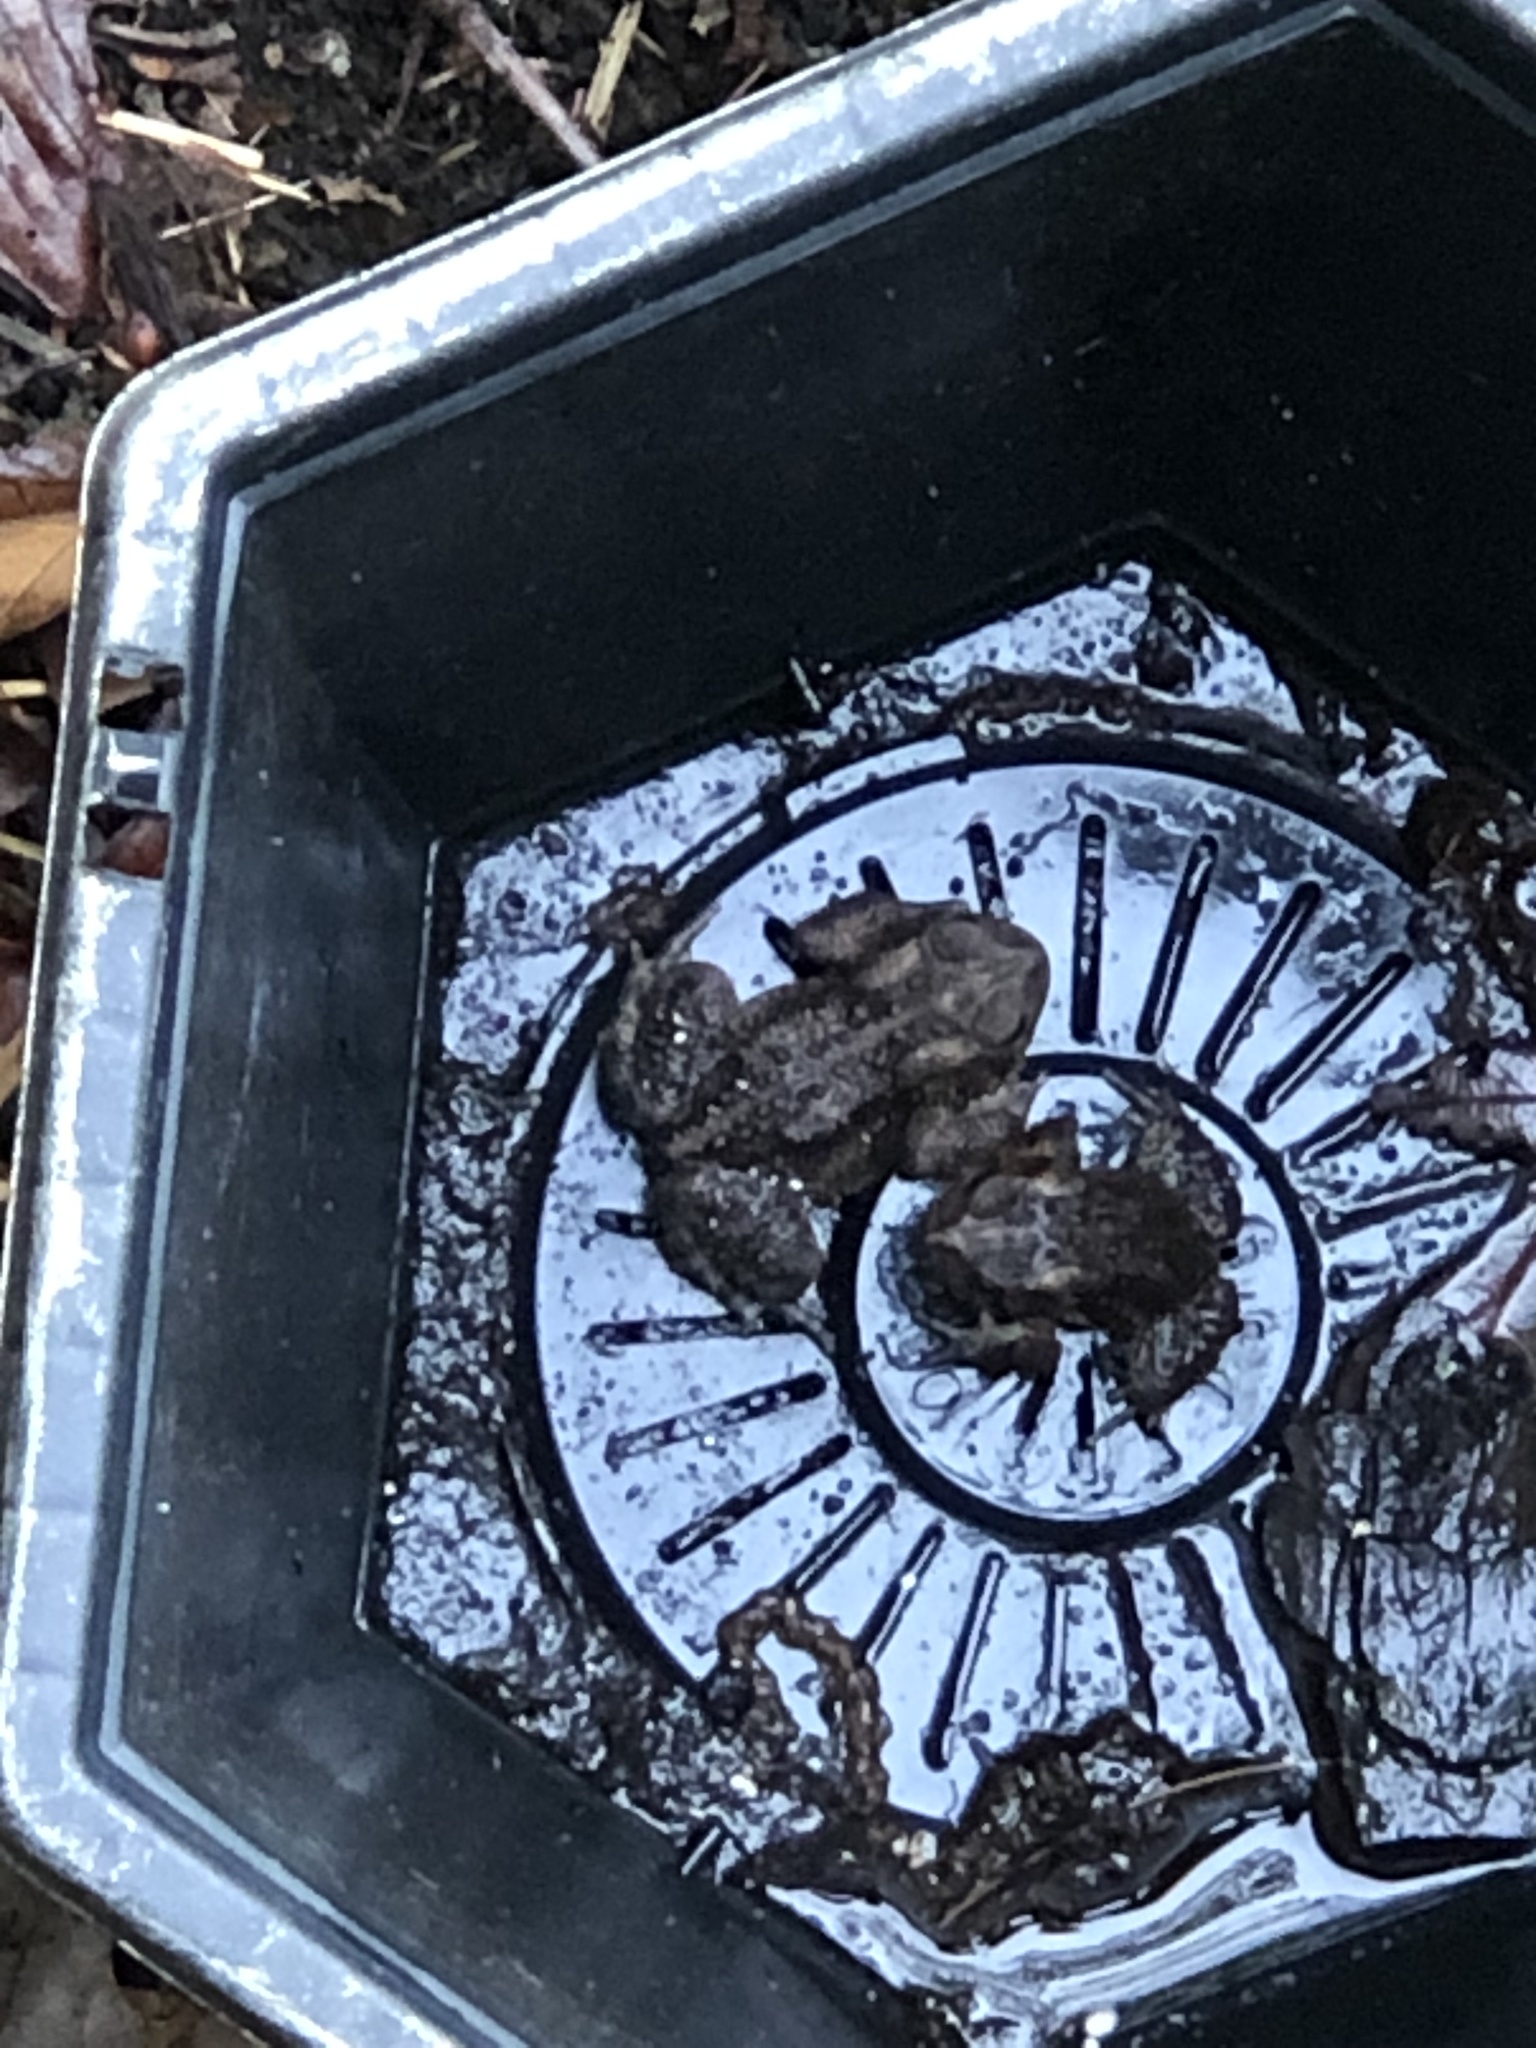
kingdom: Animalia
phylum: Chordata
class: Amphibia
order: Anura
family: Bufonidae
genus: Anaxyrus
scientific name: Anaxyrus americanus
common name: American toad
